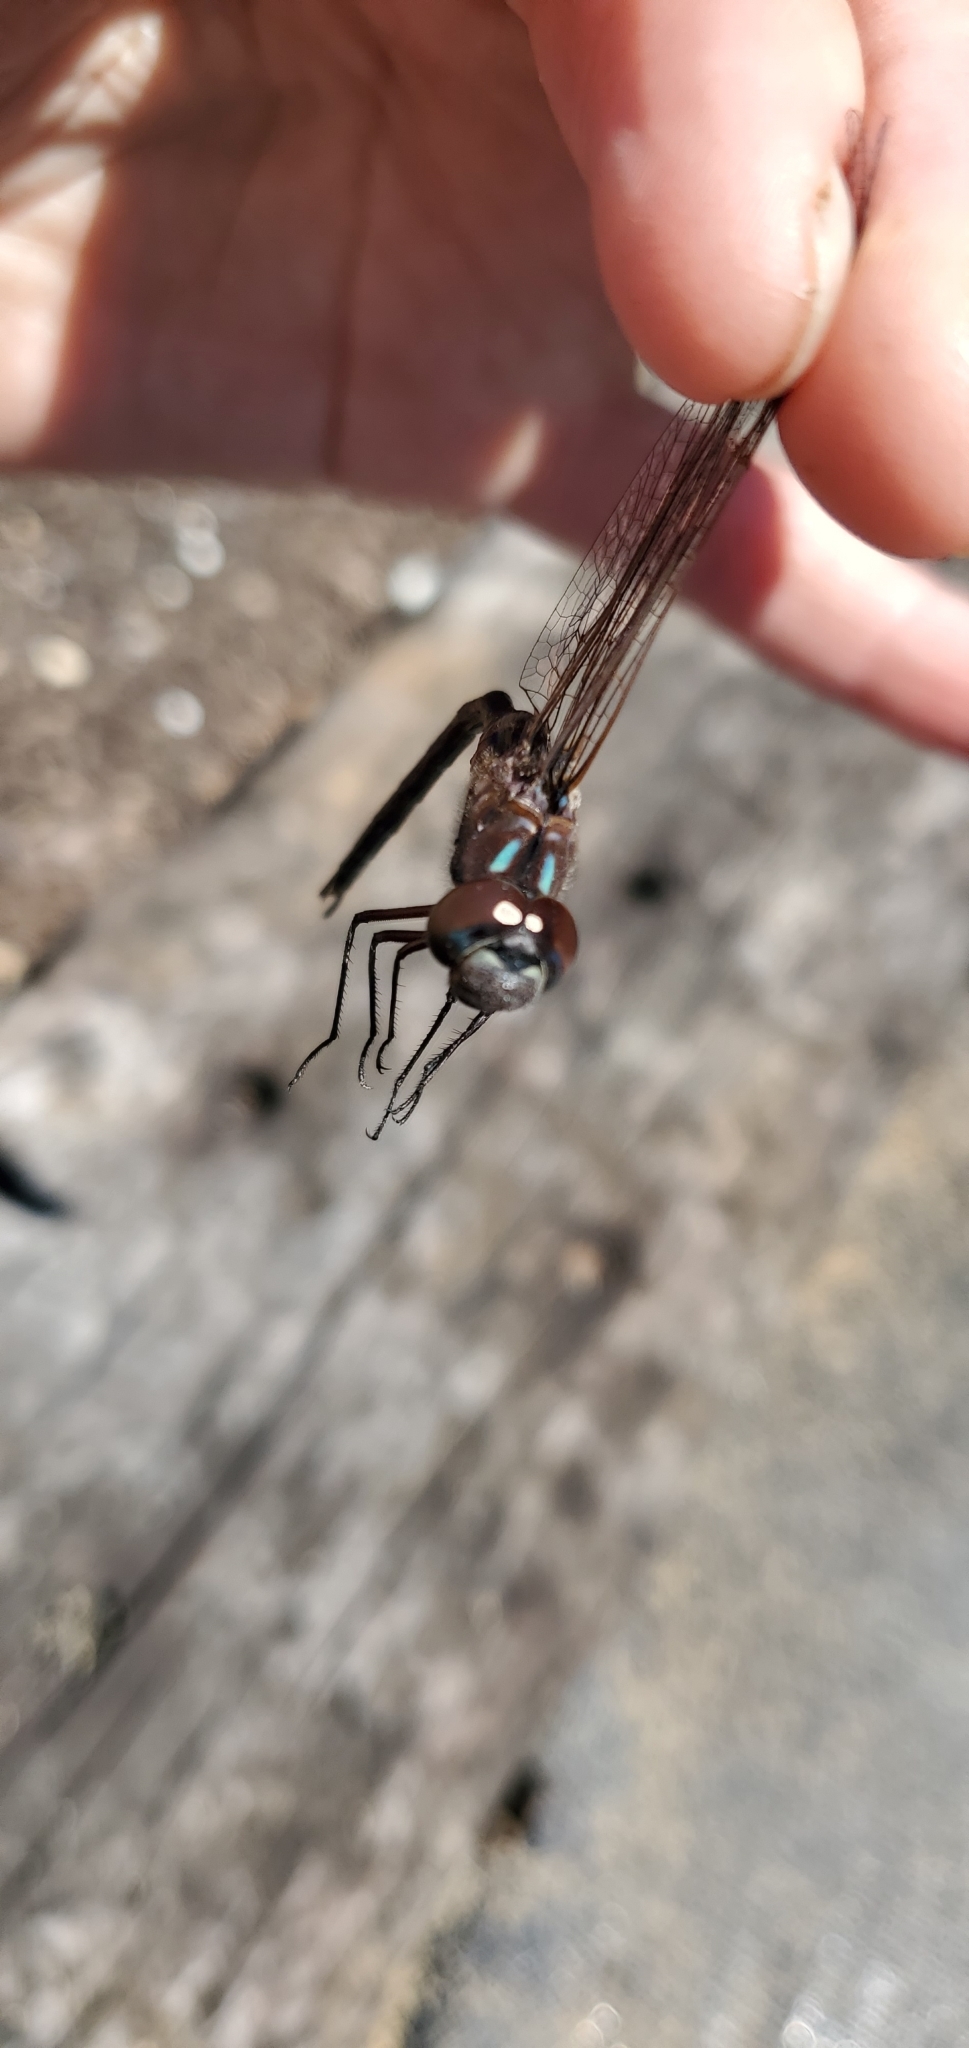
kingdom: Animalia
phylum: Arthropoda
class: Insecta
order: Odonata
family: Aeshnidae
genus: Gomphaeschna
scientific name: Gomphaeschna antilope
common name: Taper-tailed darner
